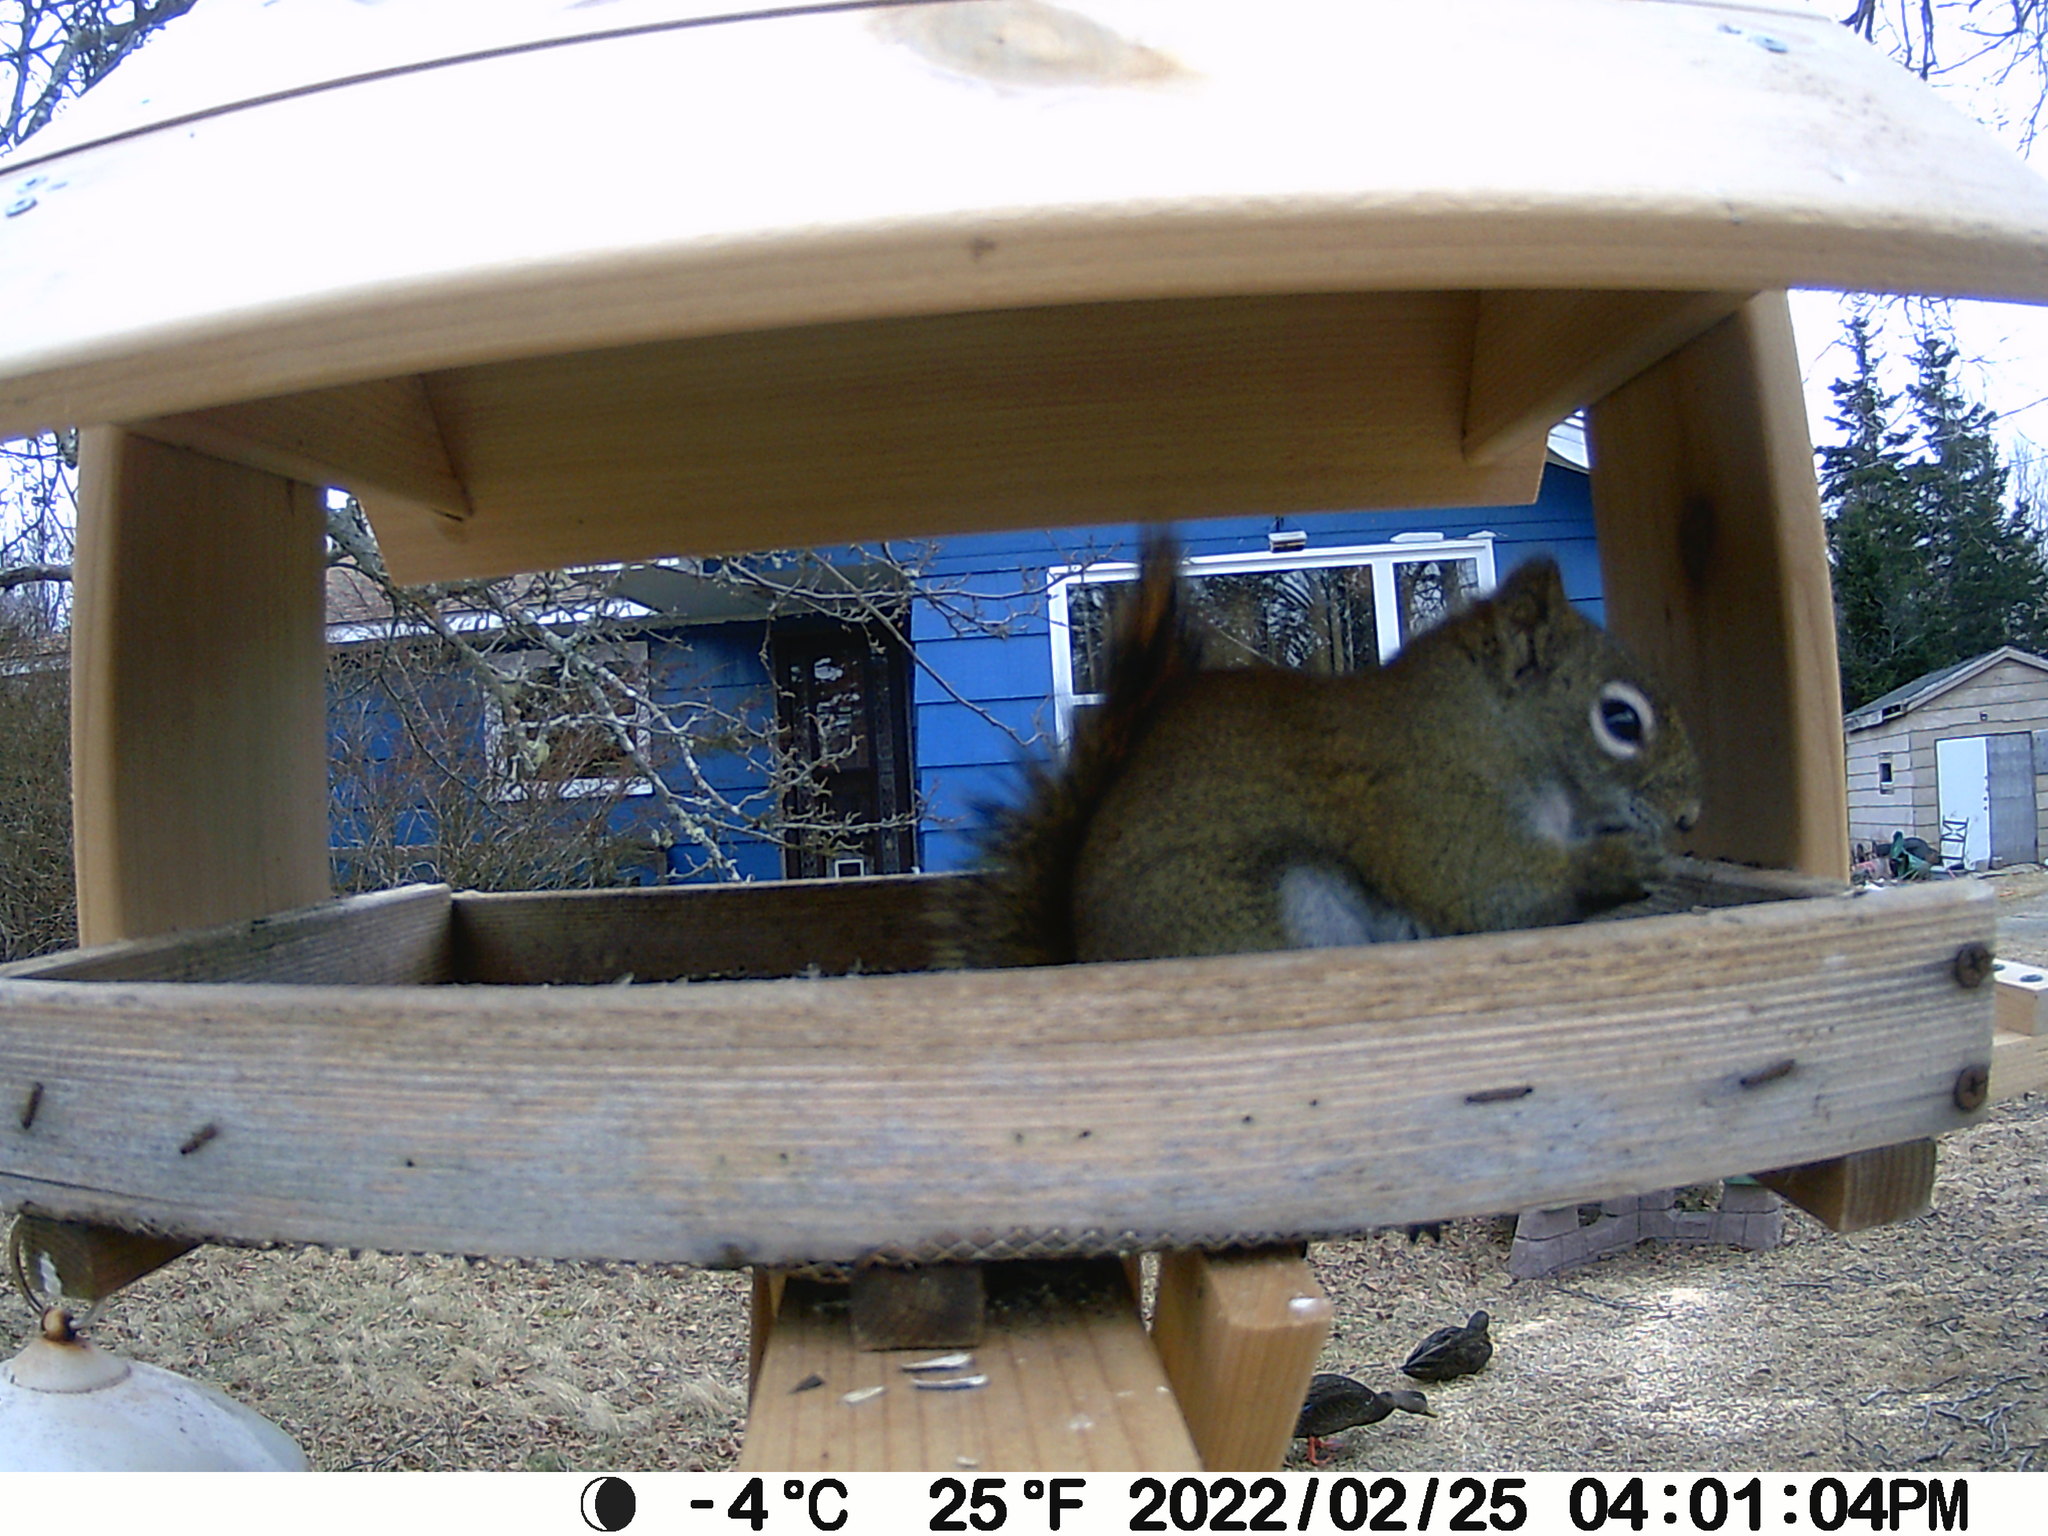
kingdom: Animalia
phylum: Chordata
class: Aves
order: Anseriformes
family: Anatidae
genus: Anas
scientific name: Anas rubripes
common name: American black duck
